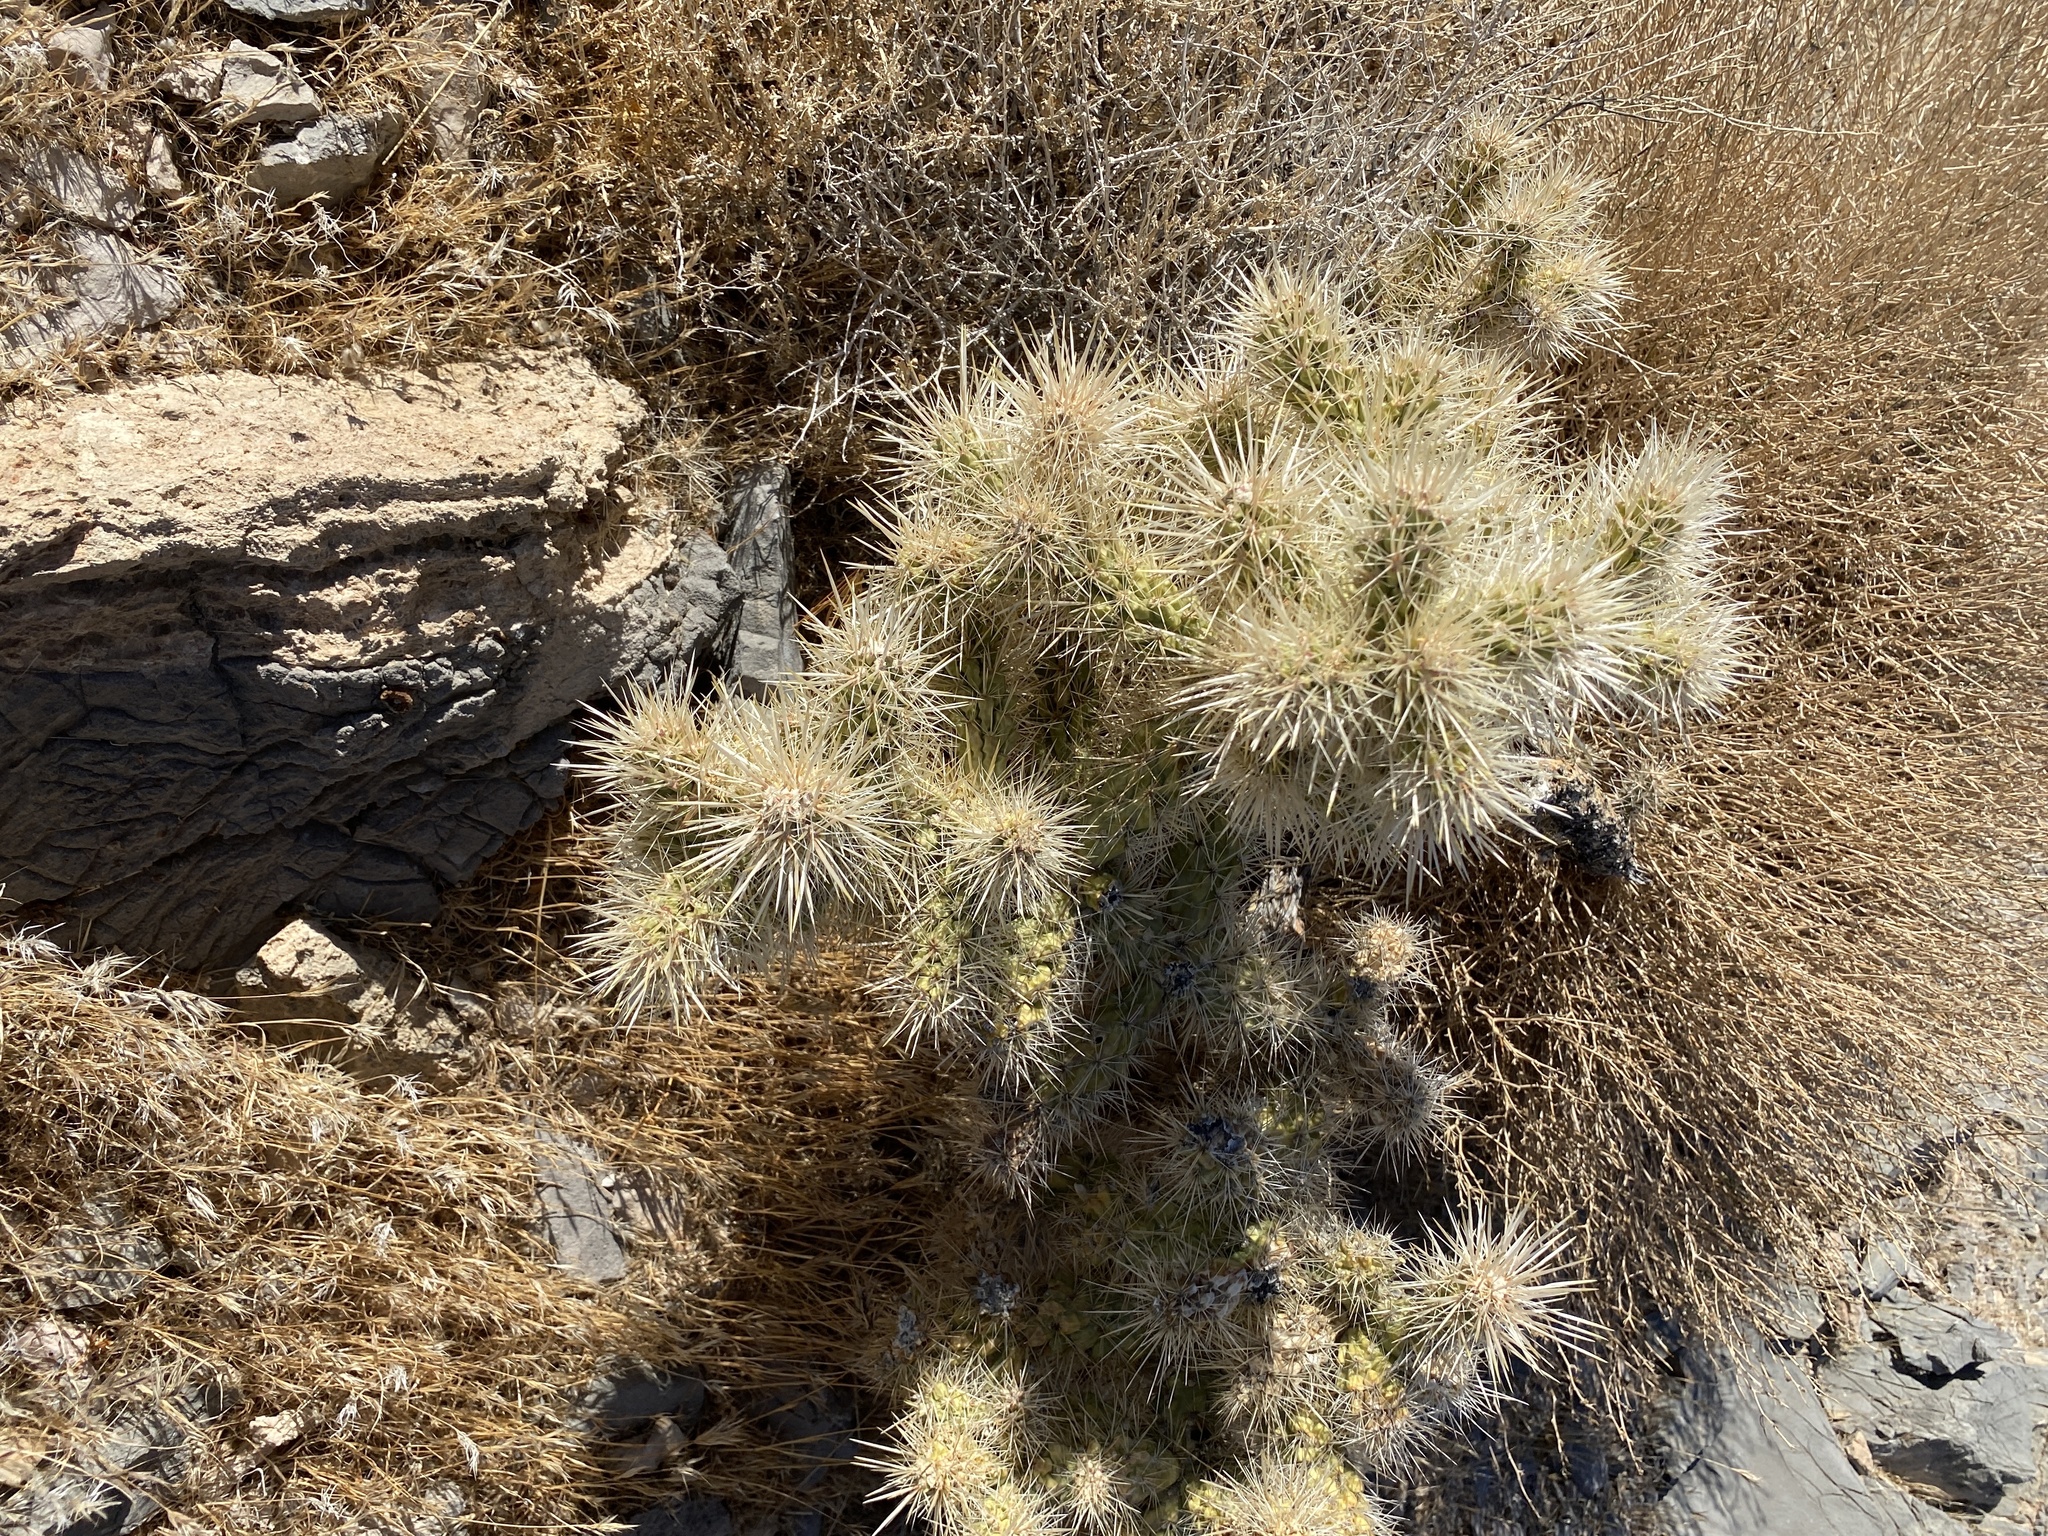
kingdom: Plantae
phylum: Tracheophyta
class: Magnoliopsida
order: Caryophyllales
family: Cactaceae
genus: Cylindropuntia
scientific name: Cylindropuntia echinocarpa
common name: Ground cholla
